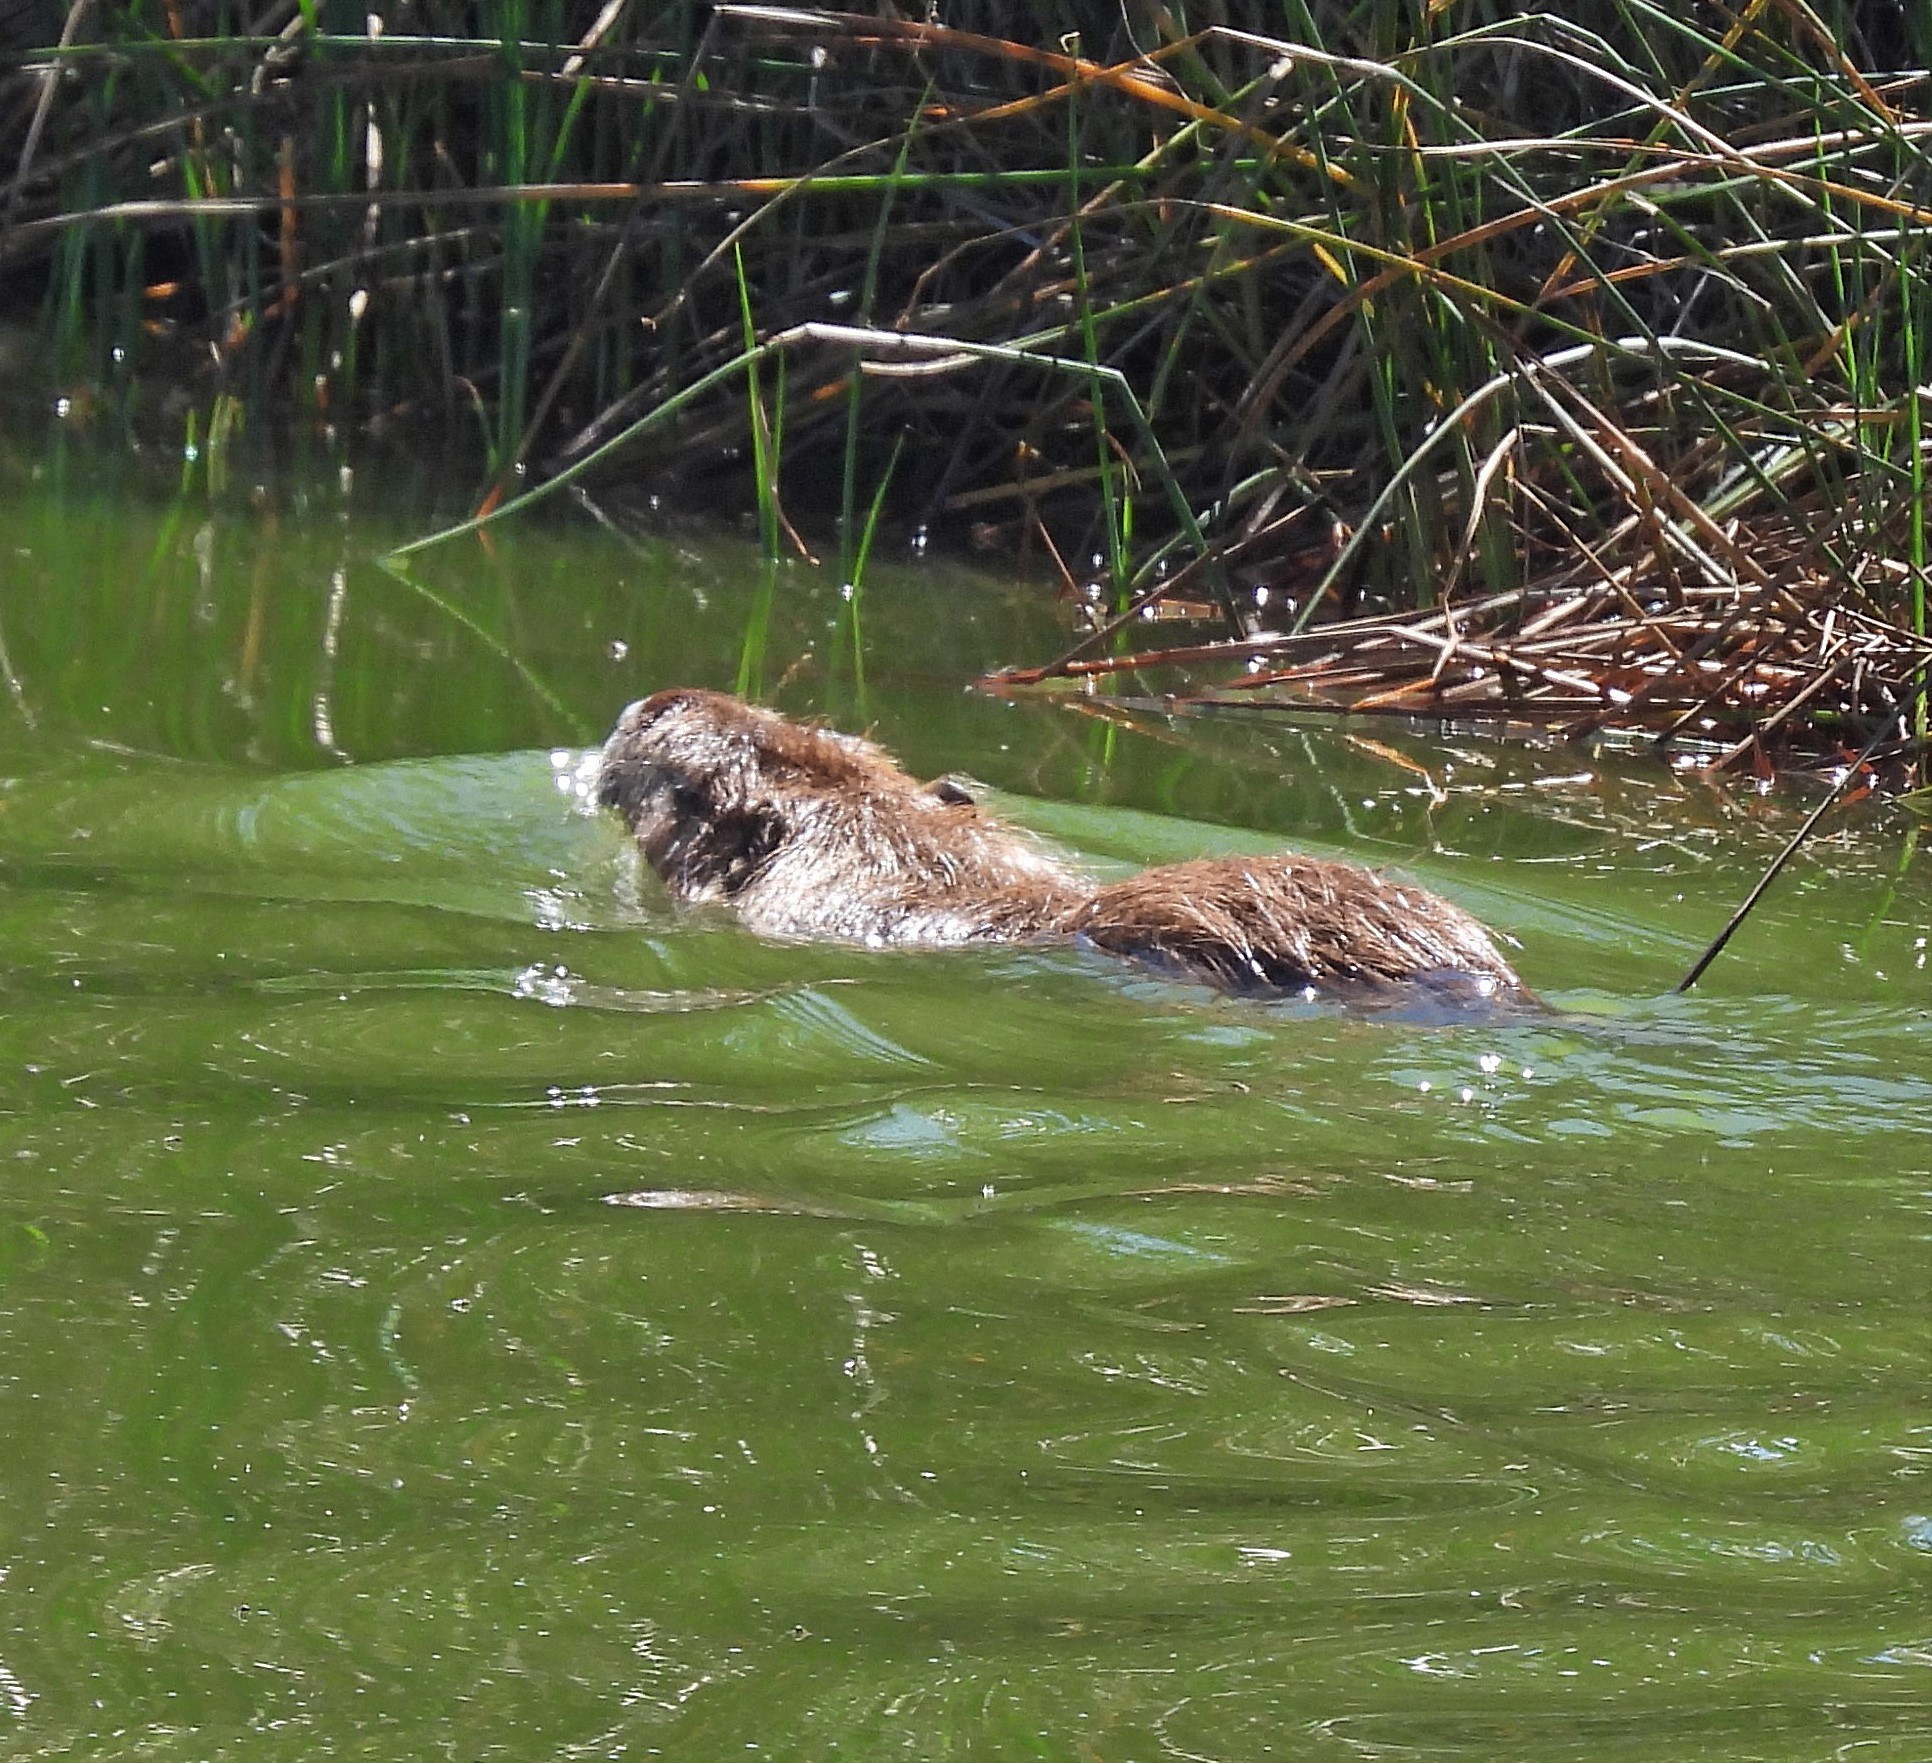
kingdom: Animalia
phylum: Chordata
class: Mammalia
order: Rodentia
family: Myocastoridae
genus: Myocastor
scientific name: Myocastor coypus
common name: Coypu
